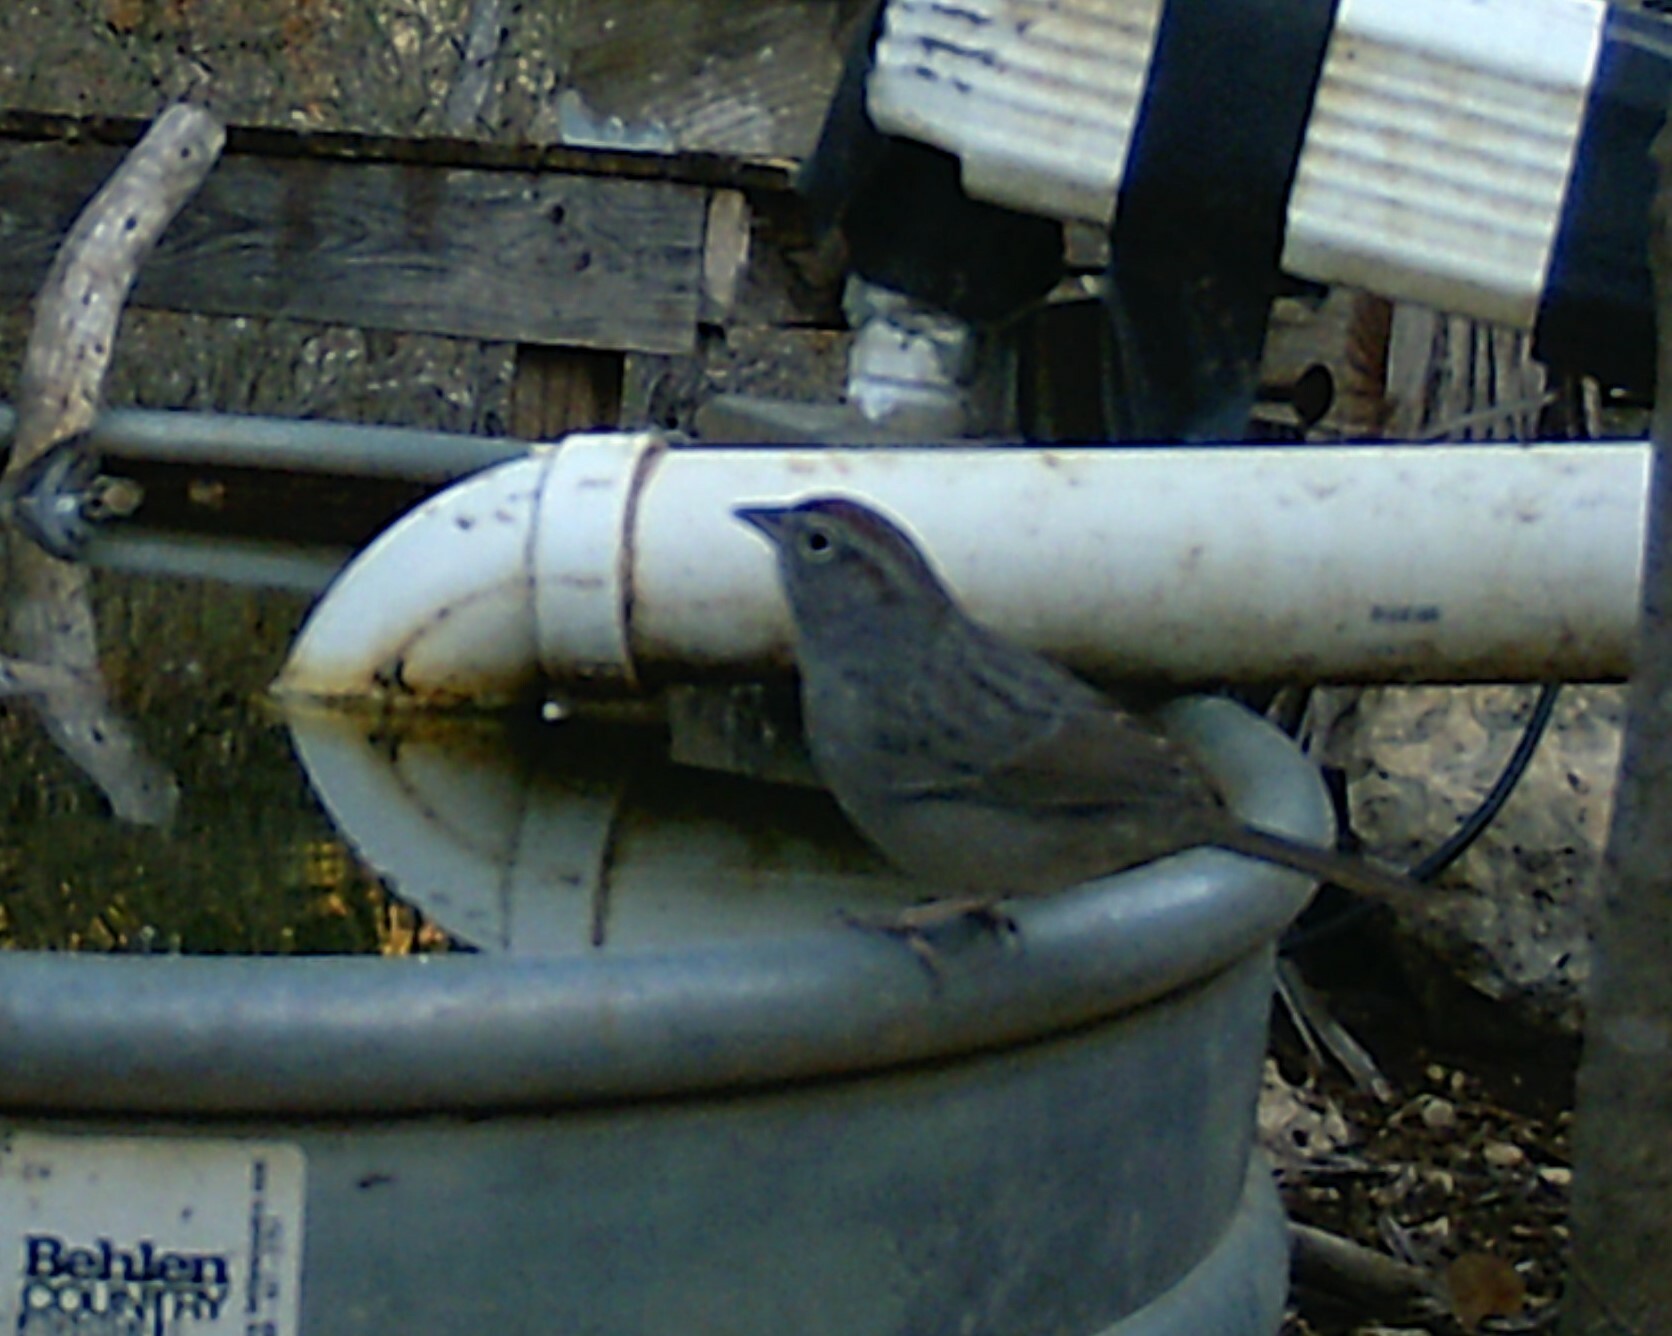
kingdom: Animalia
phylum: Chordata
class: Aves
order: Passeriformes
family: Passerellidae
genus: Aimophila
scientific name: Aimophila ruficeps
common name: Rufous-crowned sparrow
